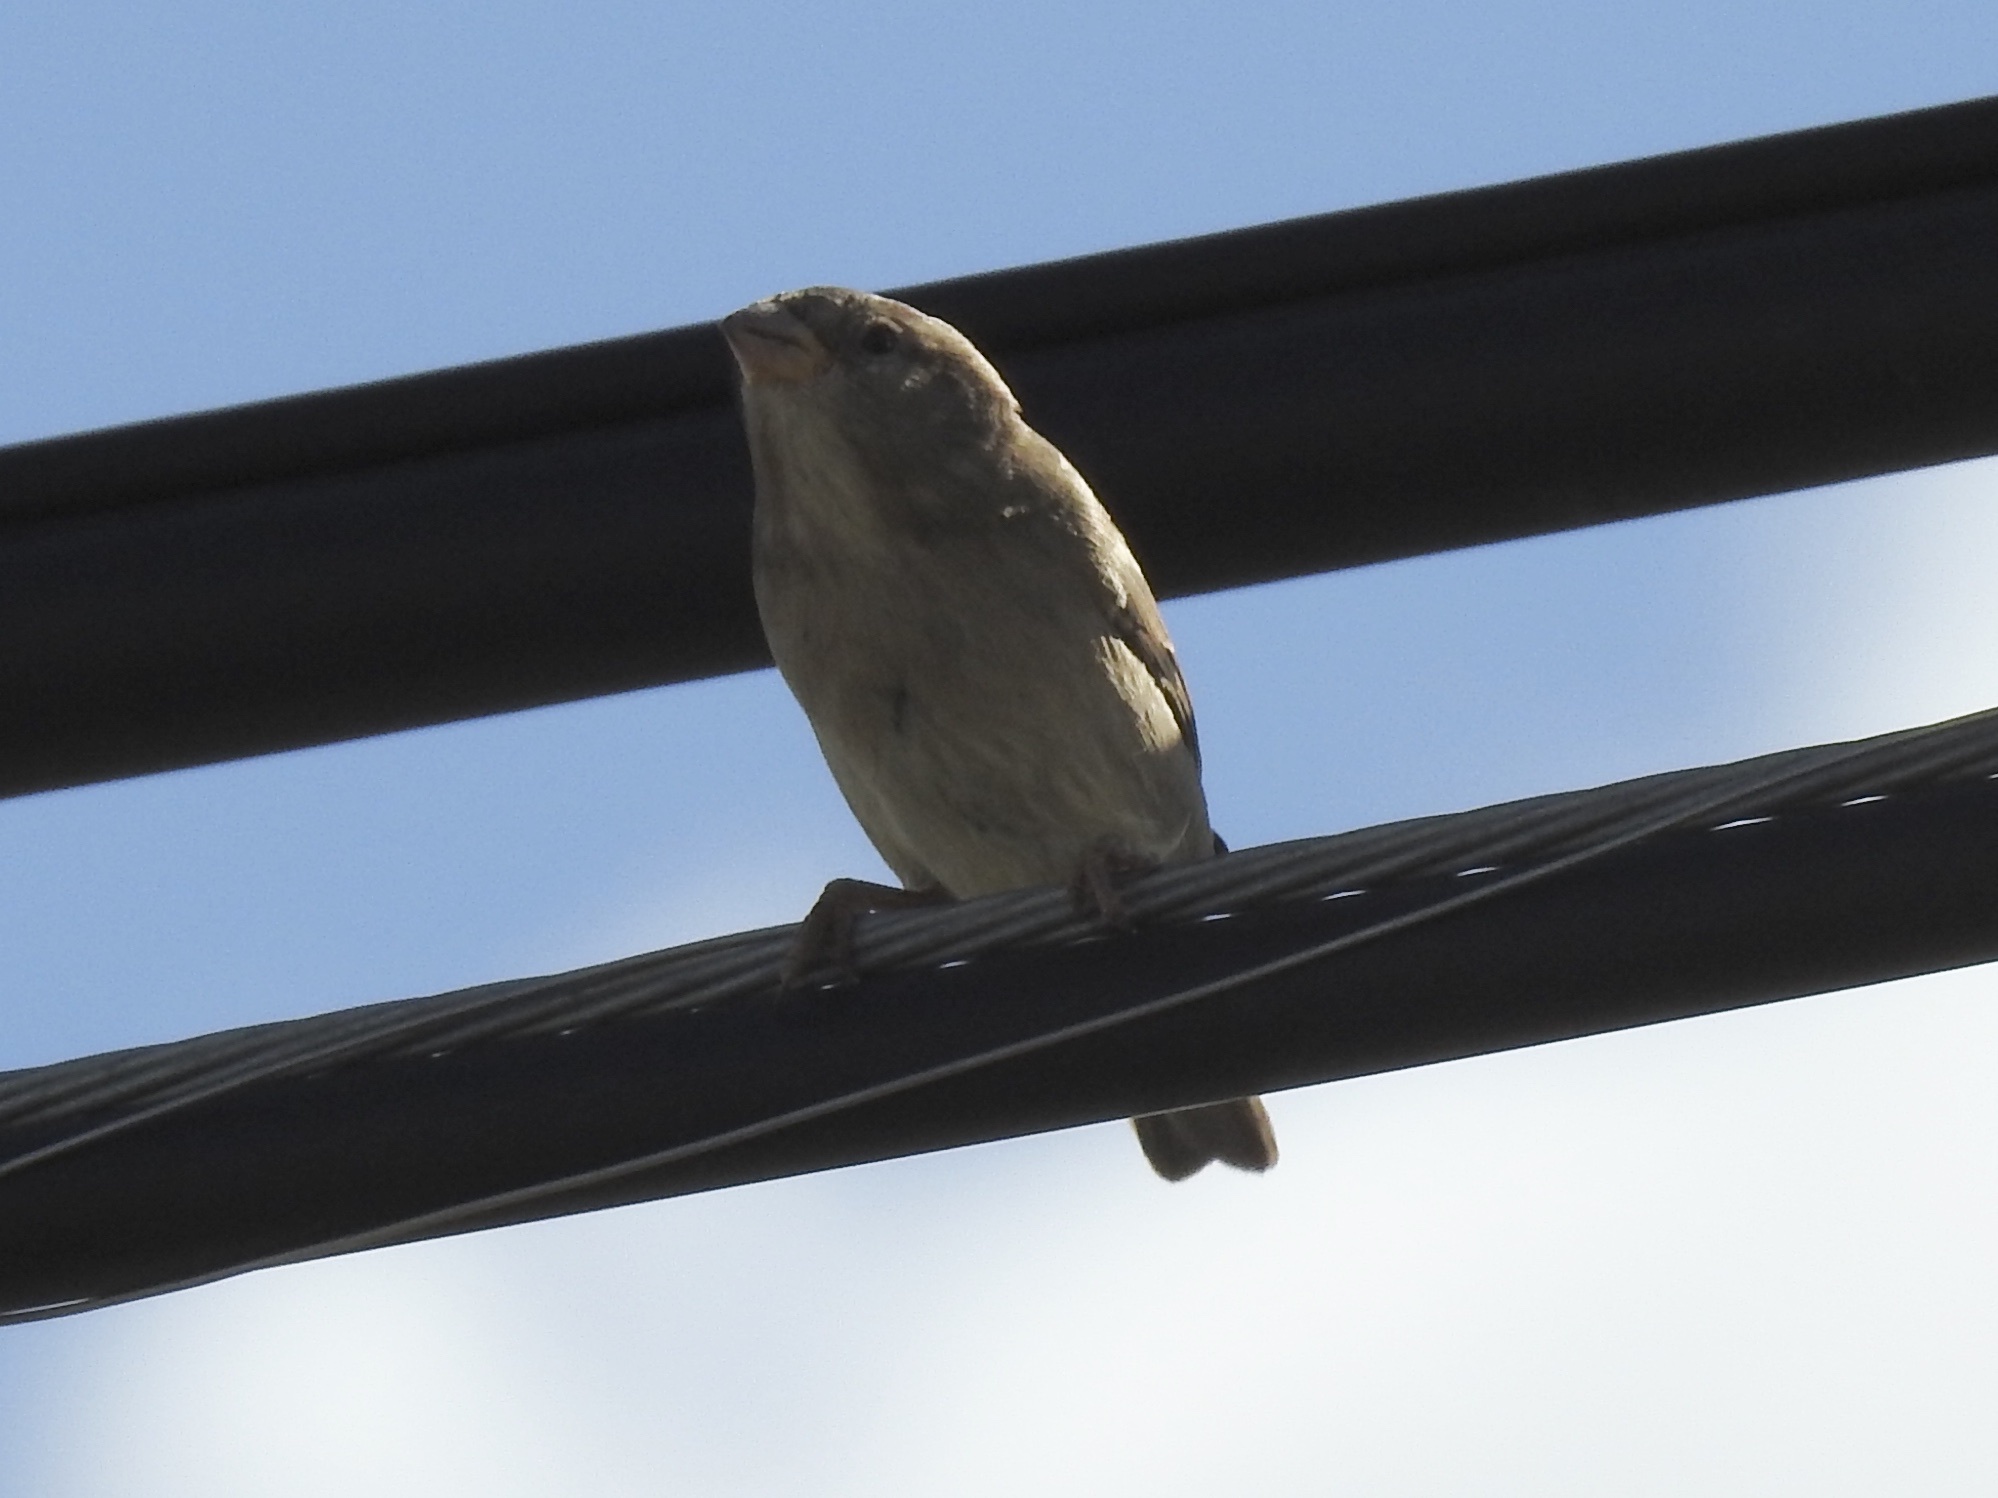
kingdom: Animalia
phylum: Chordata
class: Aves
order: Passeriformes
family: Passeridae
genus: Passer
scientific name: Passer domesticus
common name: House sparrow
